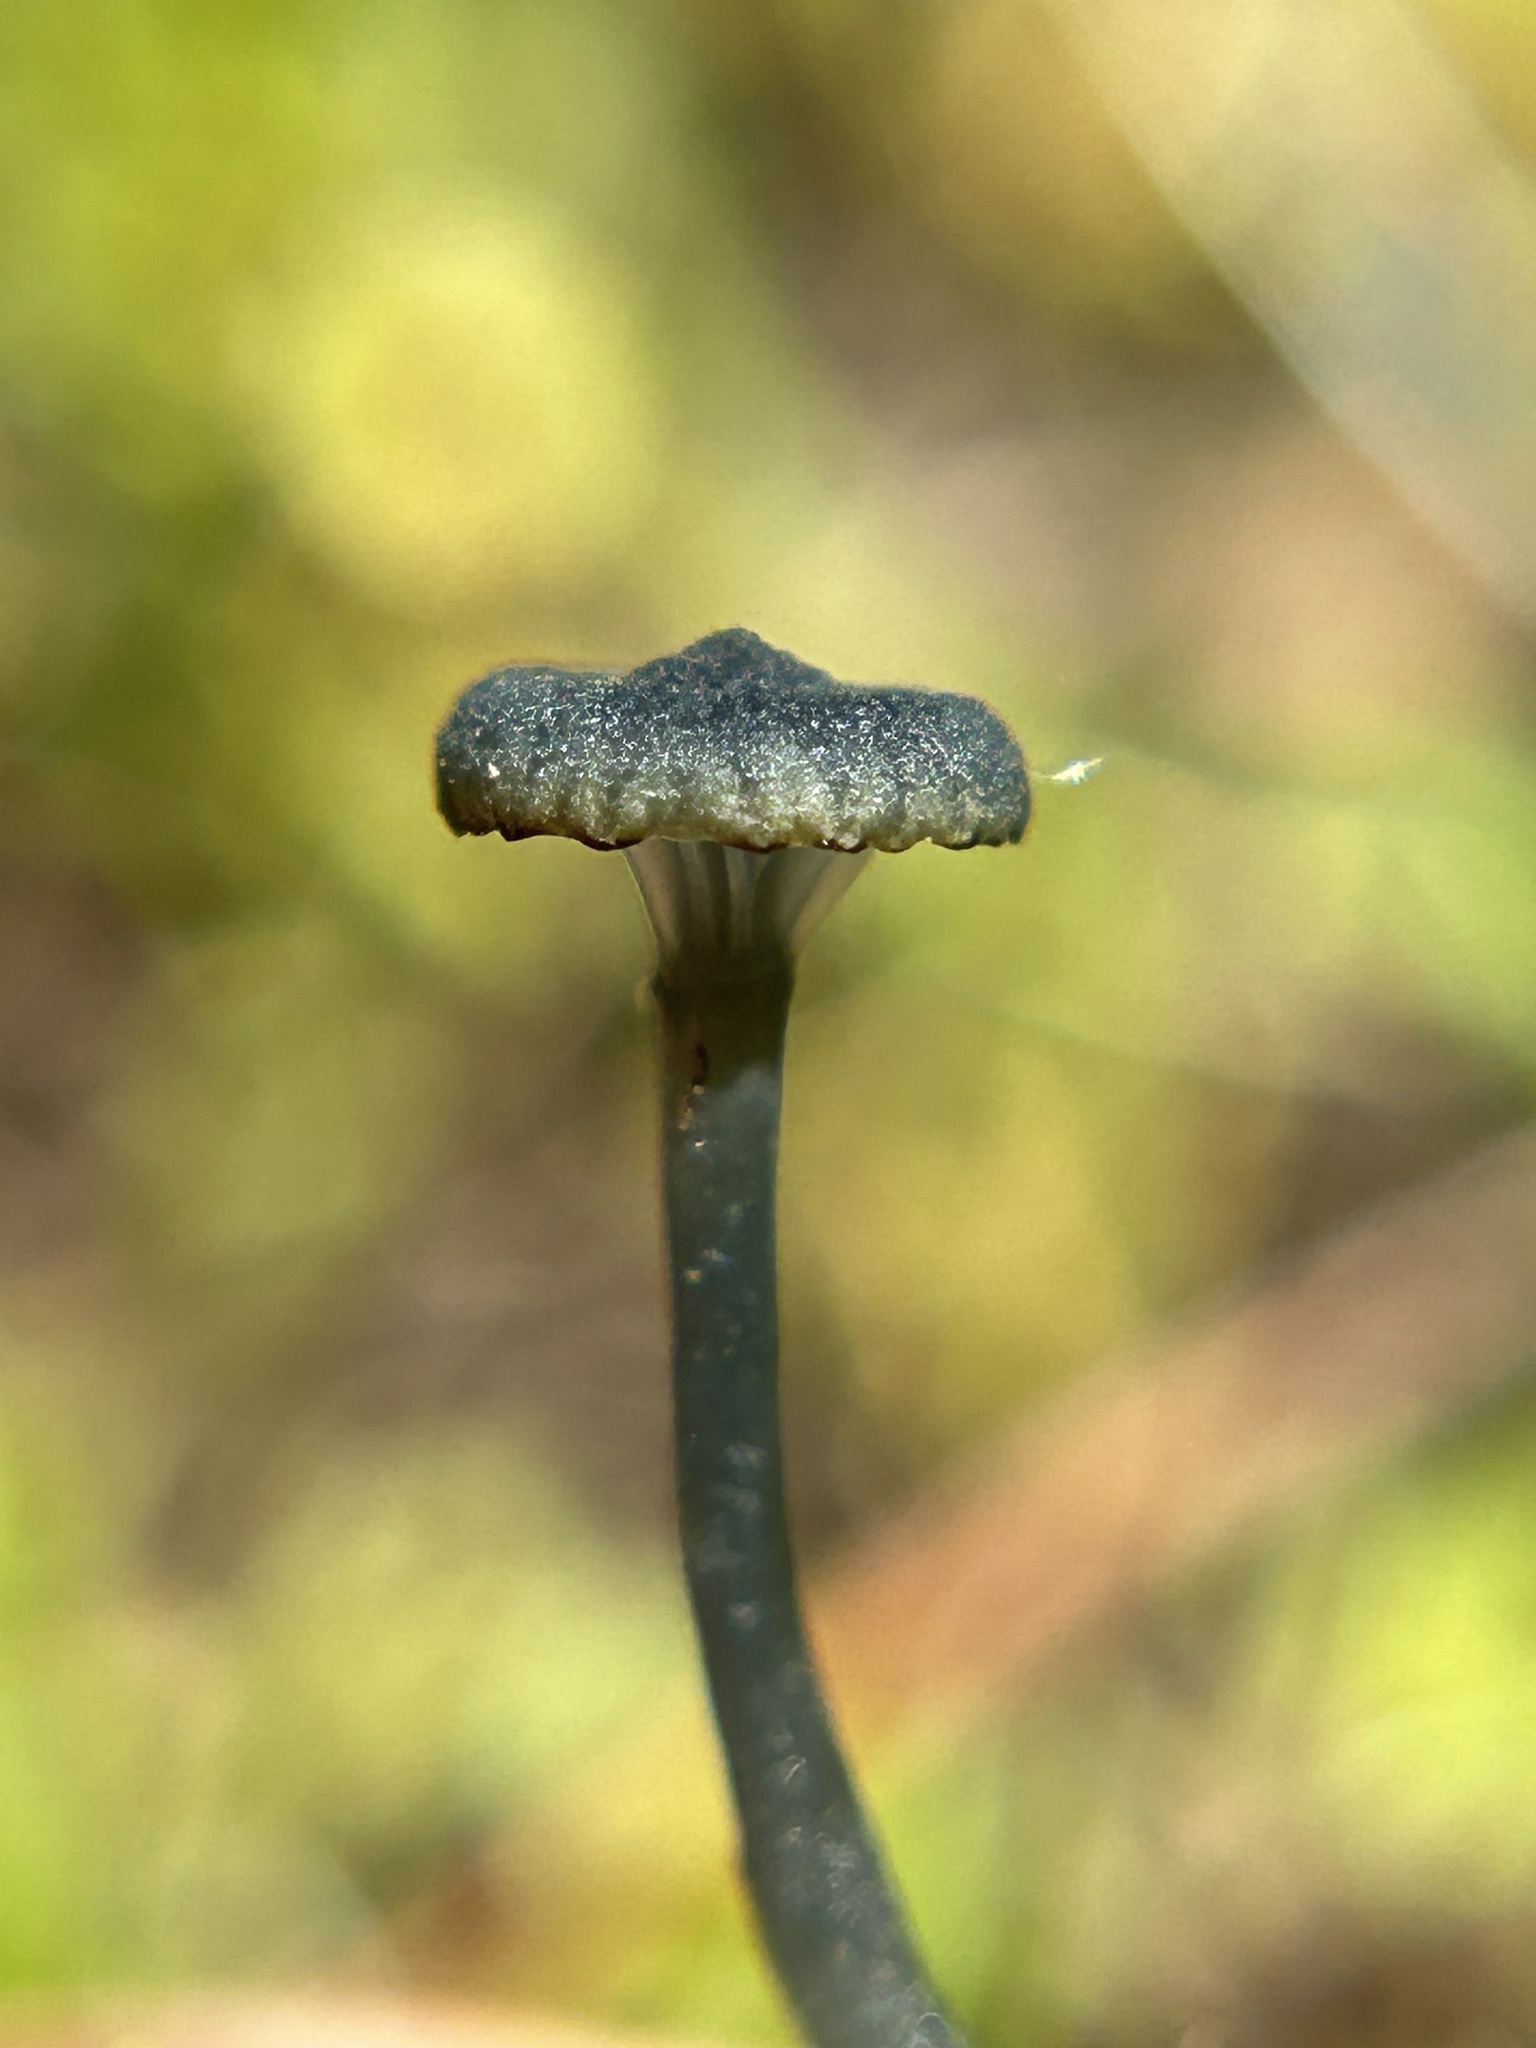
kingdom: Fungi
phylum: Basidiomycota
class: Agaricomycetes
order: Agaricales
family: Hygrophoraceae
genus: Arrhenia
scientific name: Arrhenia chlorocyanea
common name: Verdigris navel
